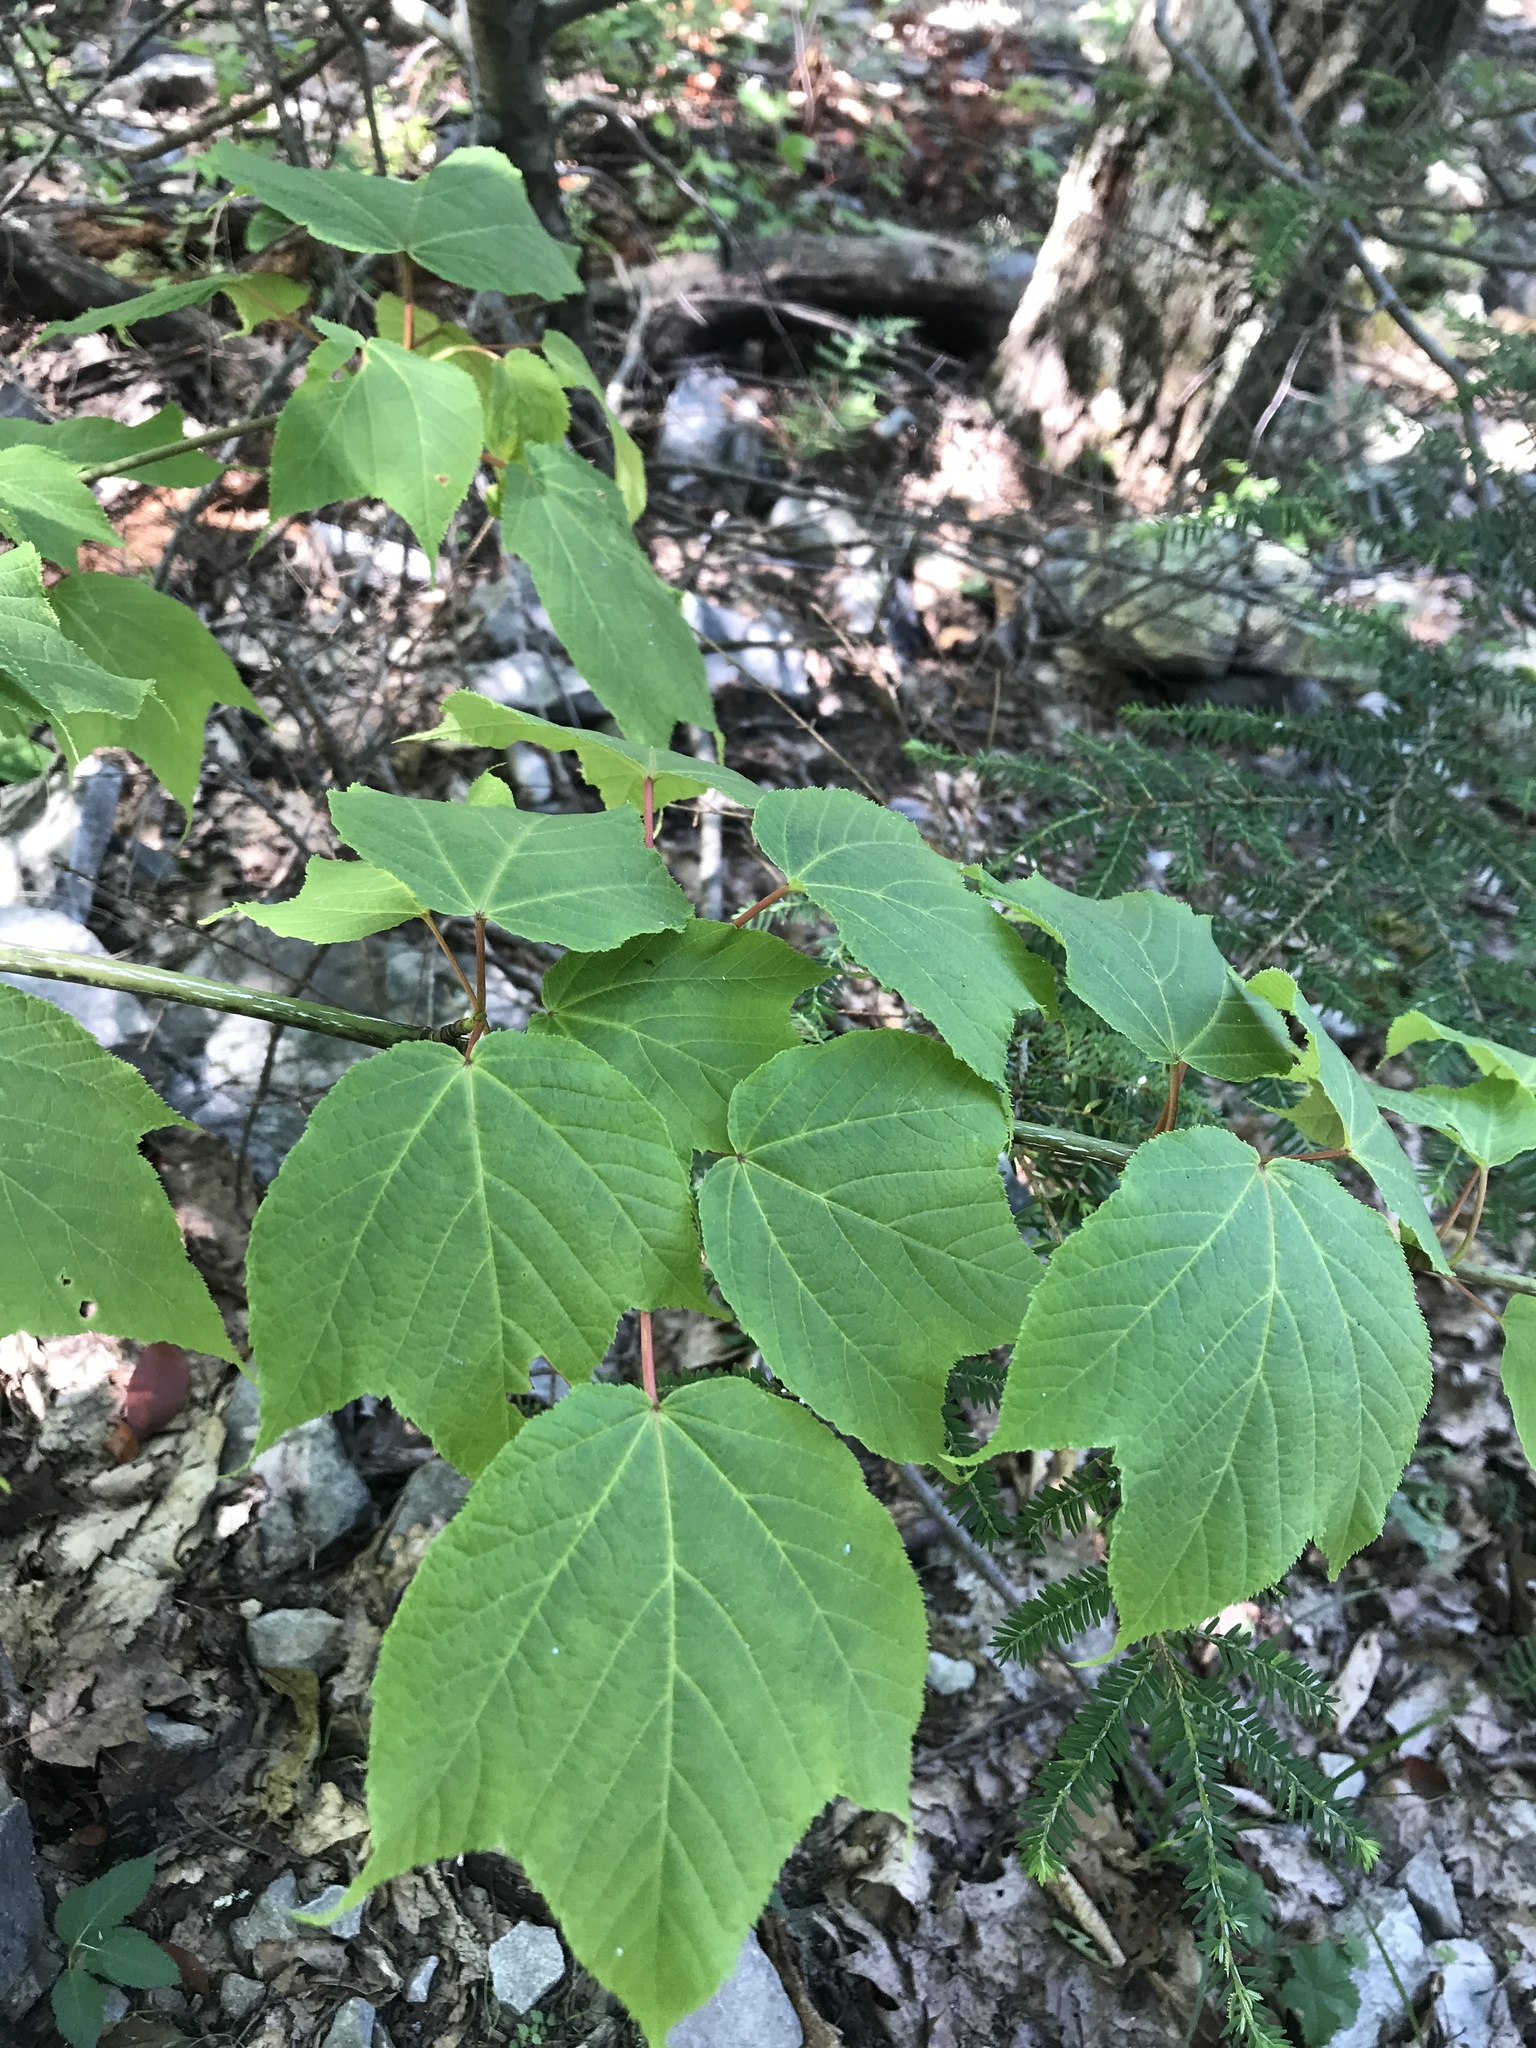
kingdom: Plantae
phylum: Tracheophyta
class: Magnoliopsida
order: Sapindales
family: Sapindaceae
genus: Acer
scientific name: Acer pensylvanicum
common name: Moosewood
